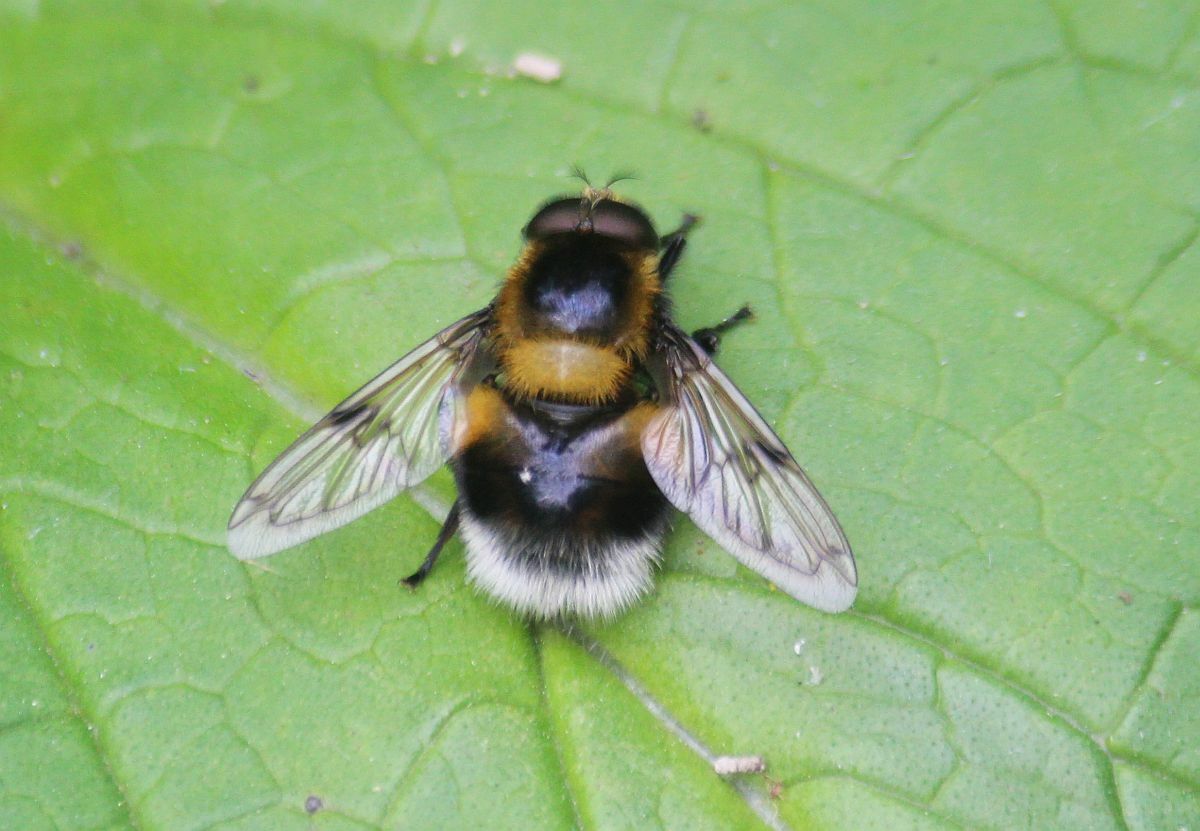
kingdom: Animalia
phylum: Arthropoda
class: Insecta
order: Diptera
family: Syrphidae
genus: Volucella
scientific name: Volucella bombylans
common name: Bumble bee hover fly
